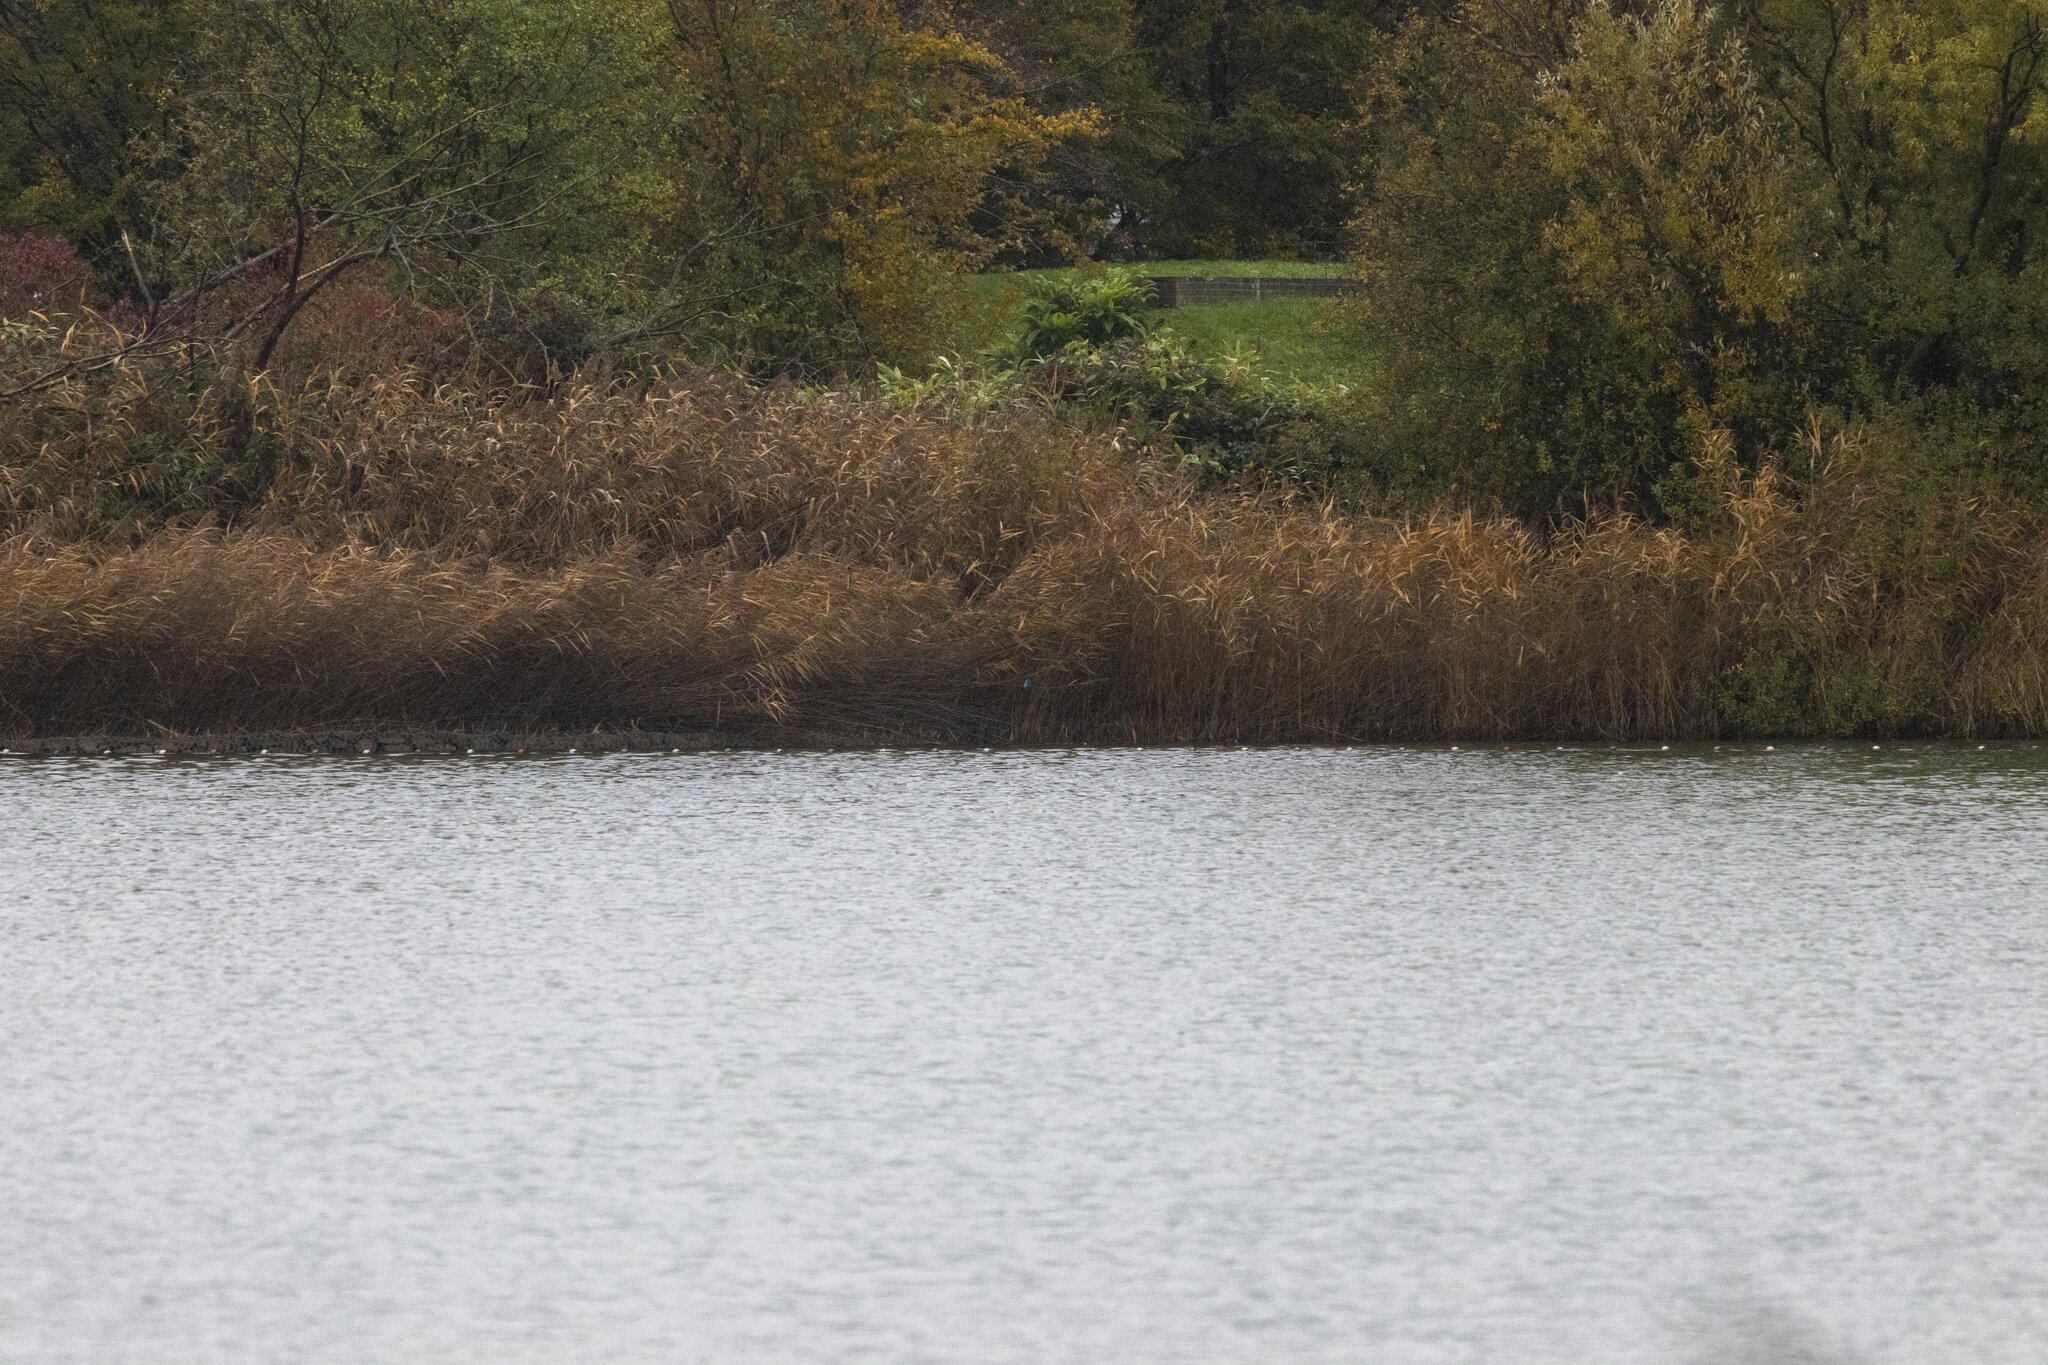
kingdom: Animalia
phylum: Chordata
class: Aves
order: Coraciiformes
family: Alcedinidae
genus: Alcedo
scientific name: Alcedo atthis
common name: Common kingfisher
